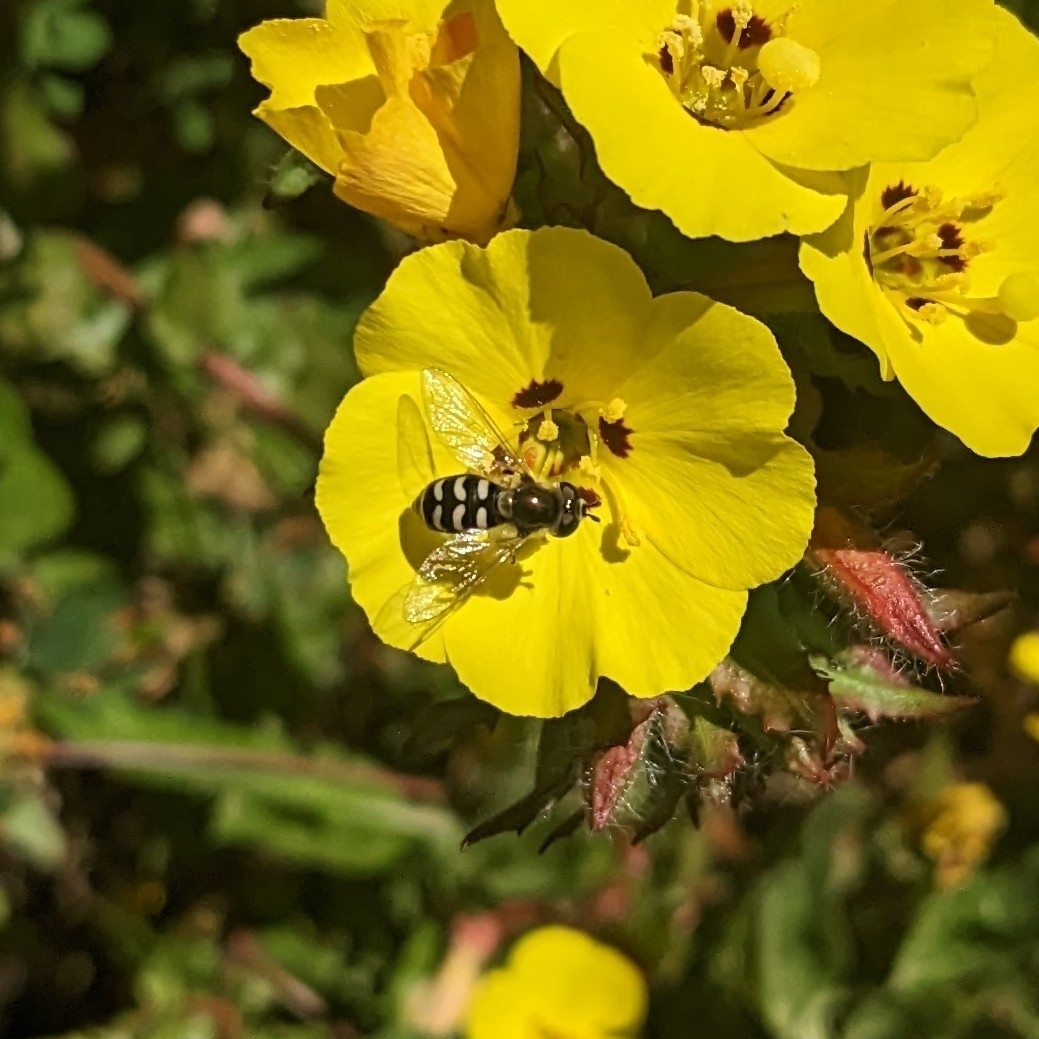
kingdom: Animalia
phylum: Arthropoda
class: Insecta
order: Diptera
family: Syrphidae
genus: Eupeodes
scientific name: Eupeodes volucris
